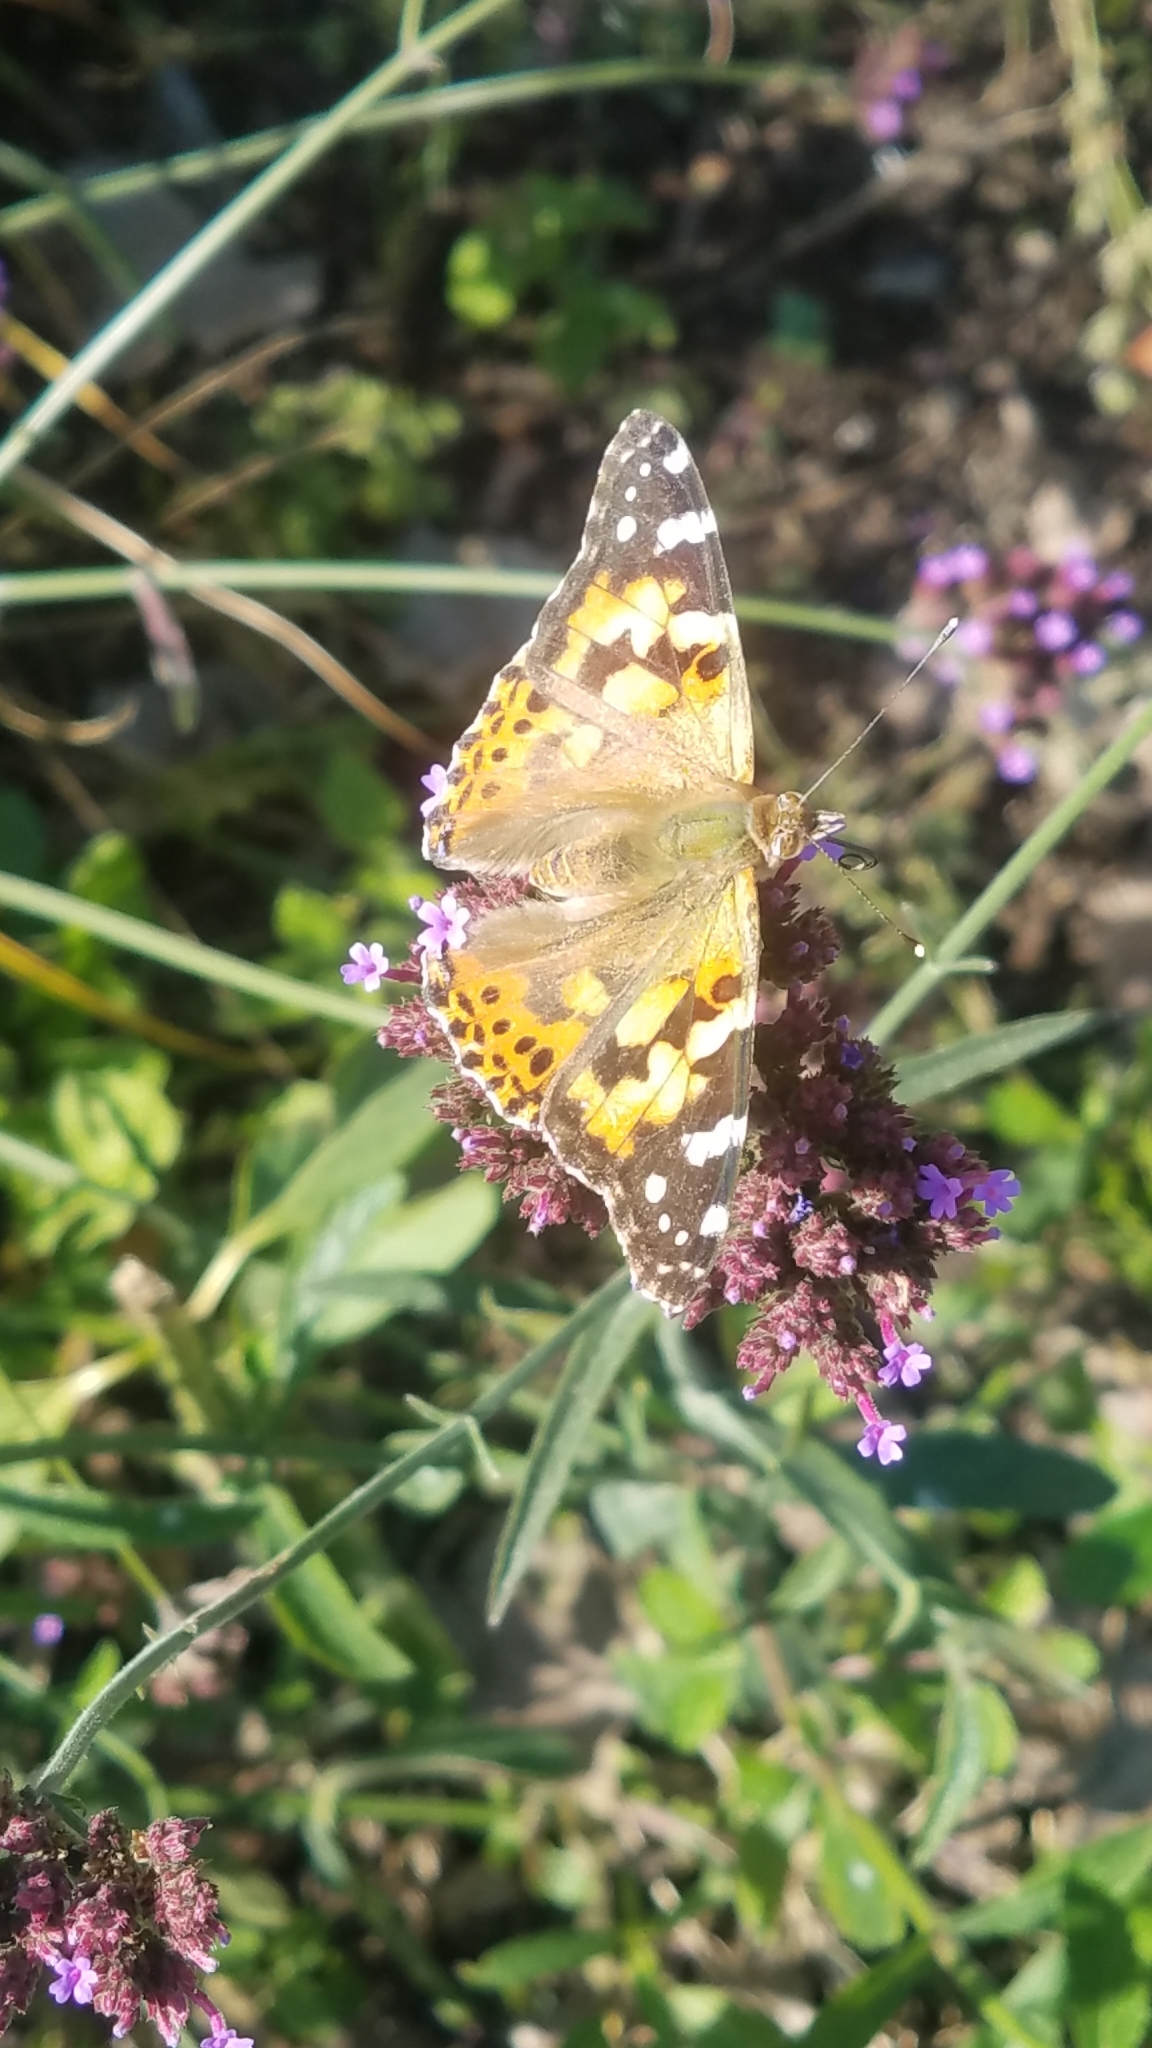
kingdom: Animalia
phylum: Arthropoda
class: Insecta
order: Lepidoptera
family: Nymphalidae
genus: Vanessa
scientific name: Vanessa cardui
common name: Painted lady
